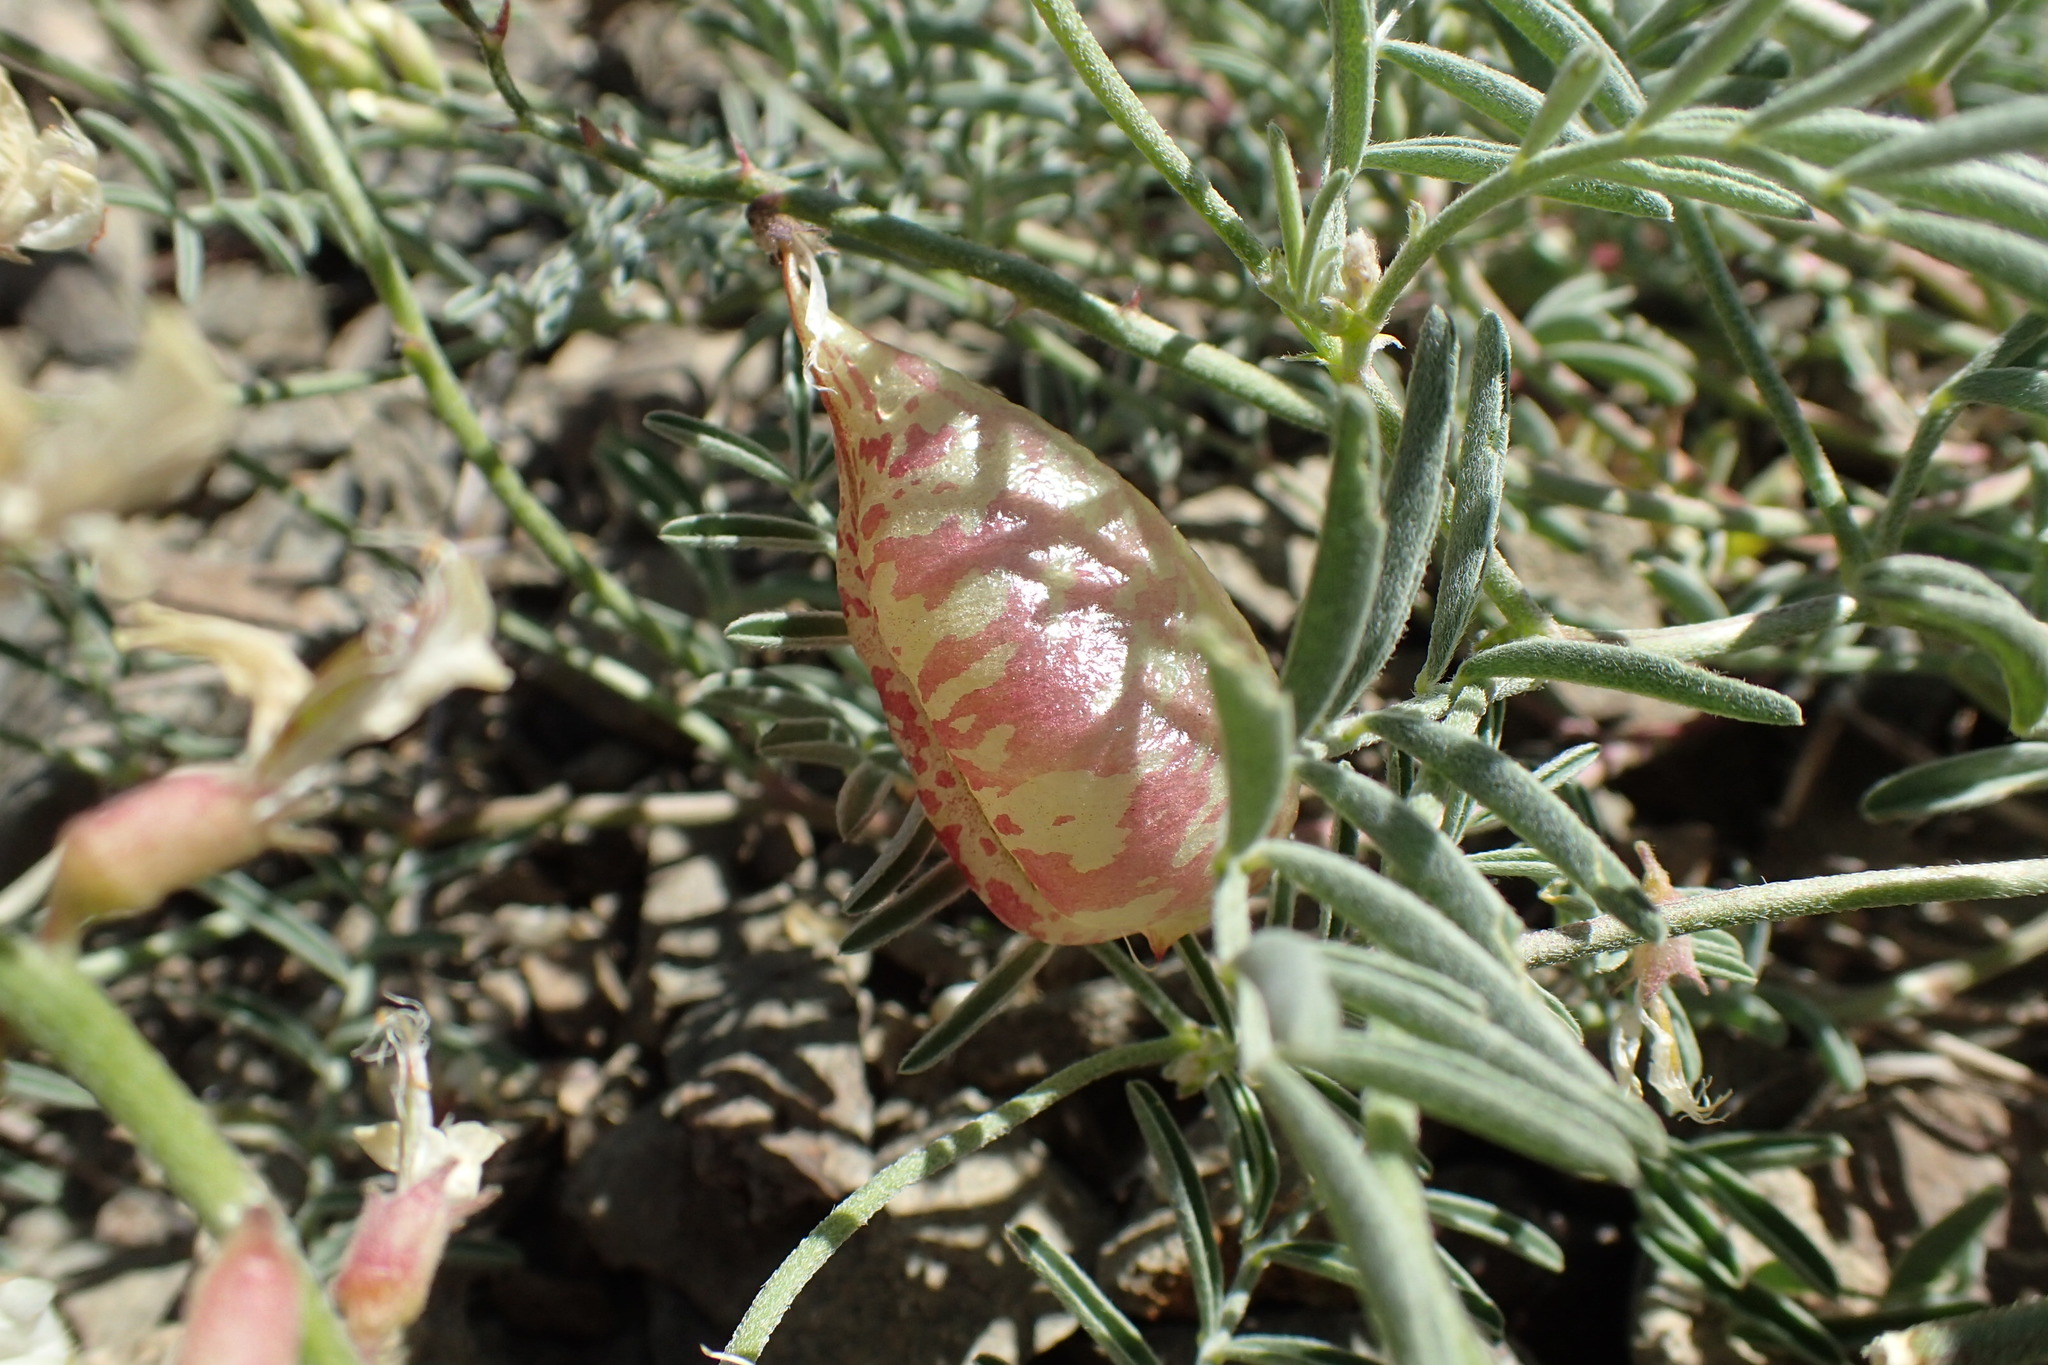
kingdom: Plantae
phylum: Tracheophyta
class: Magnoliopsida
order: Fabales
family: Fabaceae
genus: Astragalus
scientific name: Astragalus whitneyi
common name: Balloonpod milkvetch
